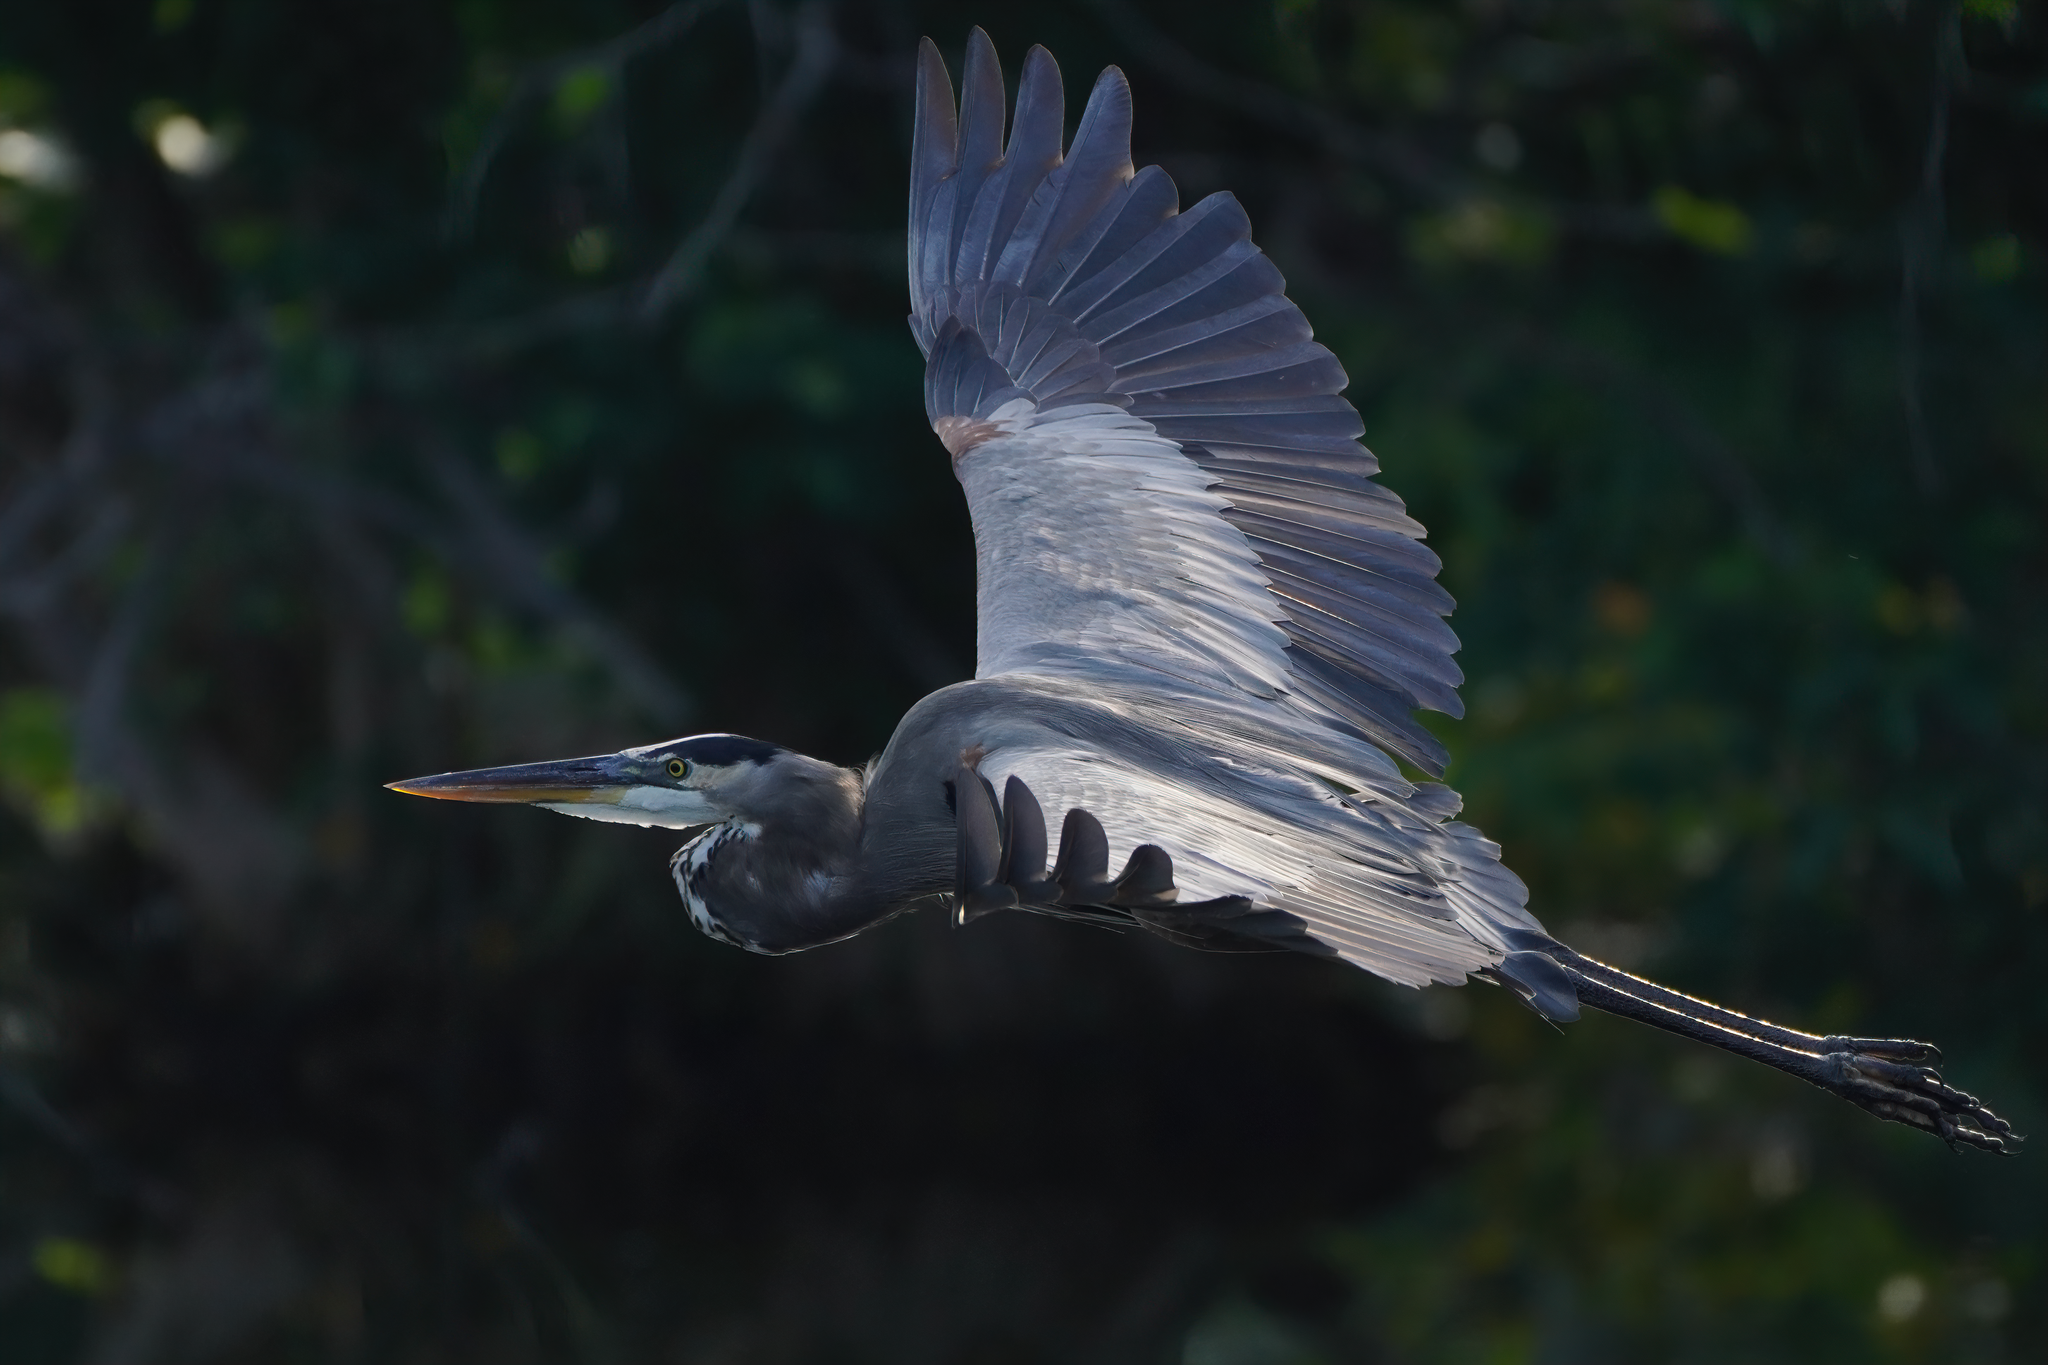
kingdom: Animalia
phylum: Chordata
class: Aves
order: Pelecaniformes
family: Ardeidae
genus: Ardea
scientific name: Ardea herodias
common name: Great blue heron
